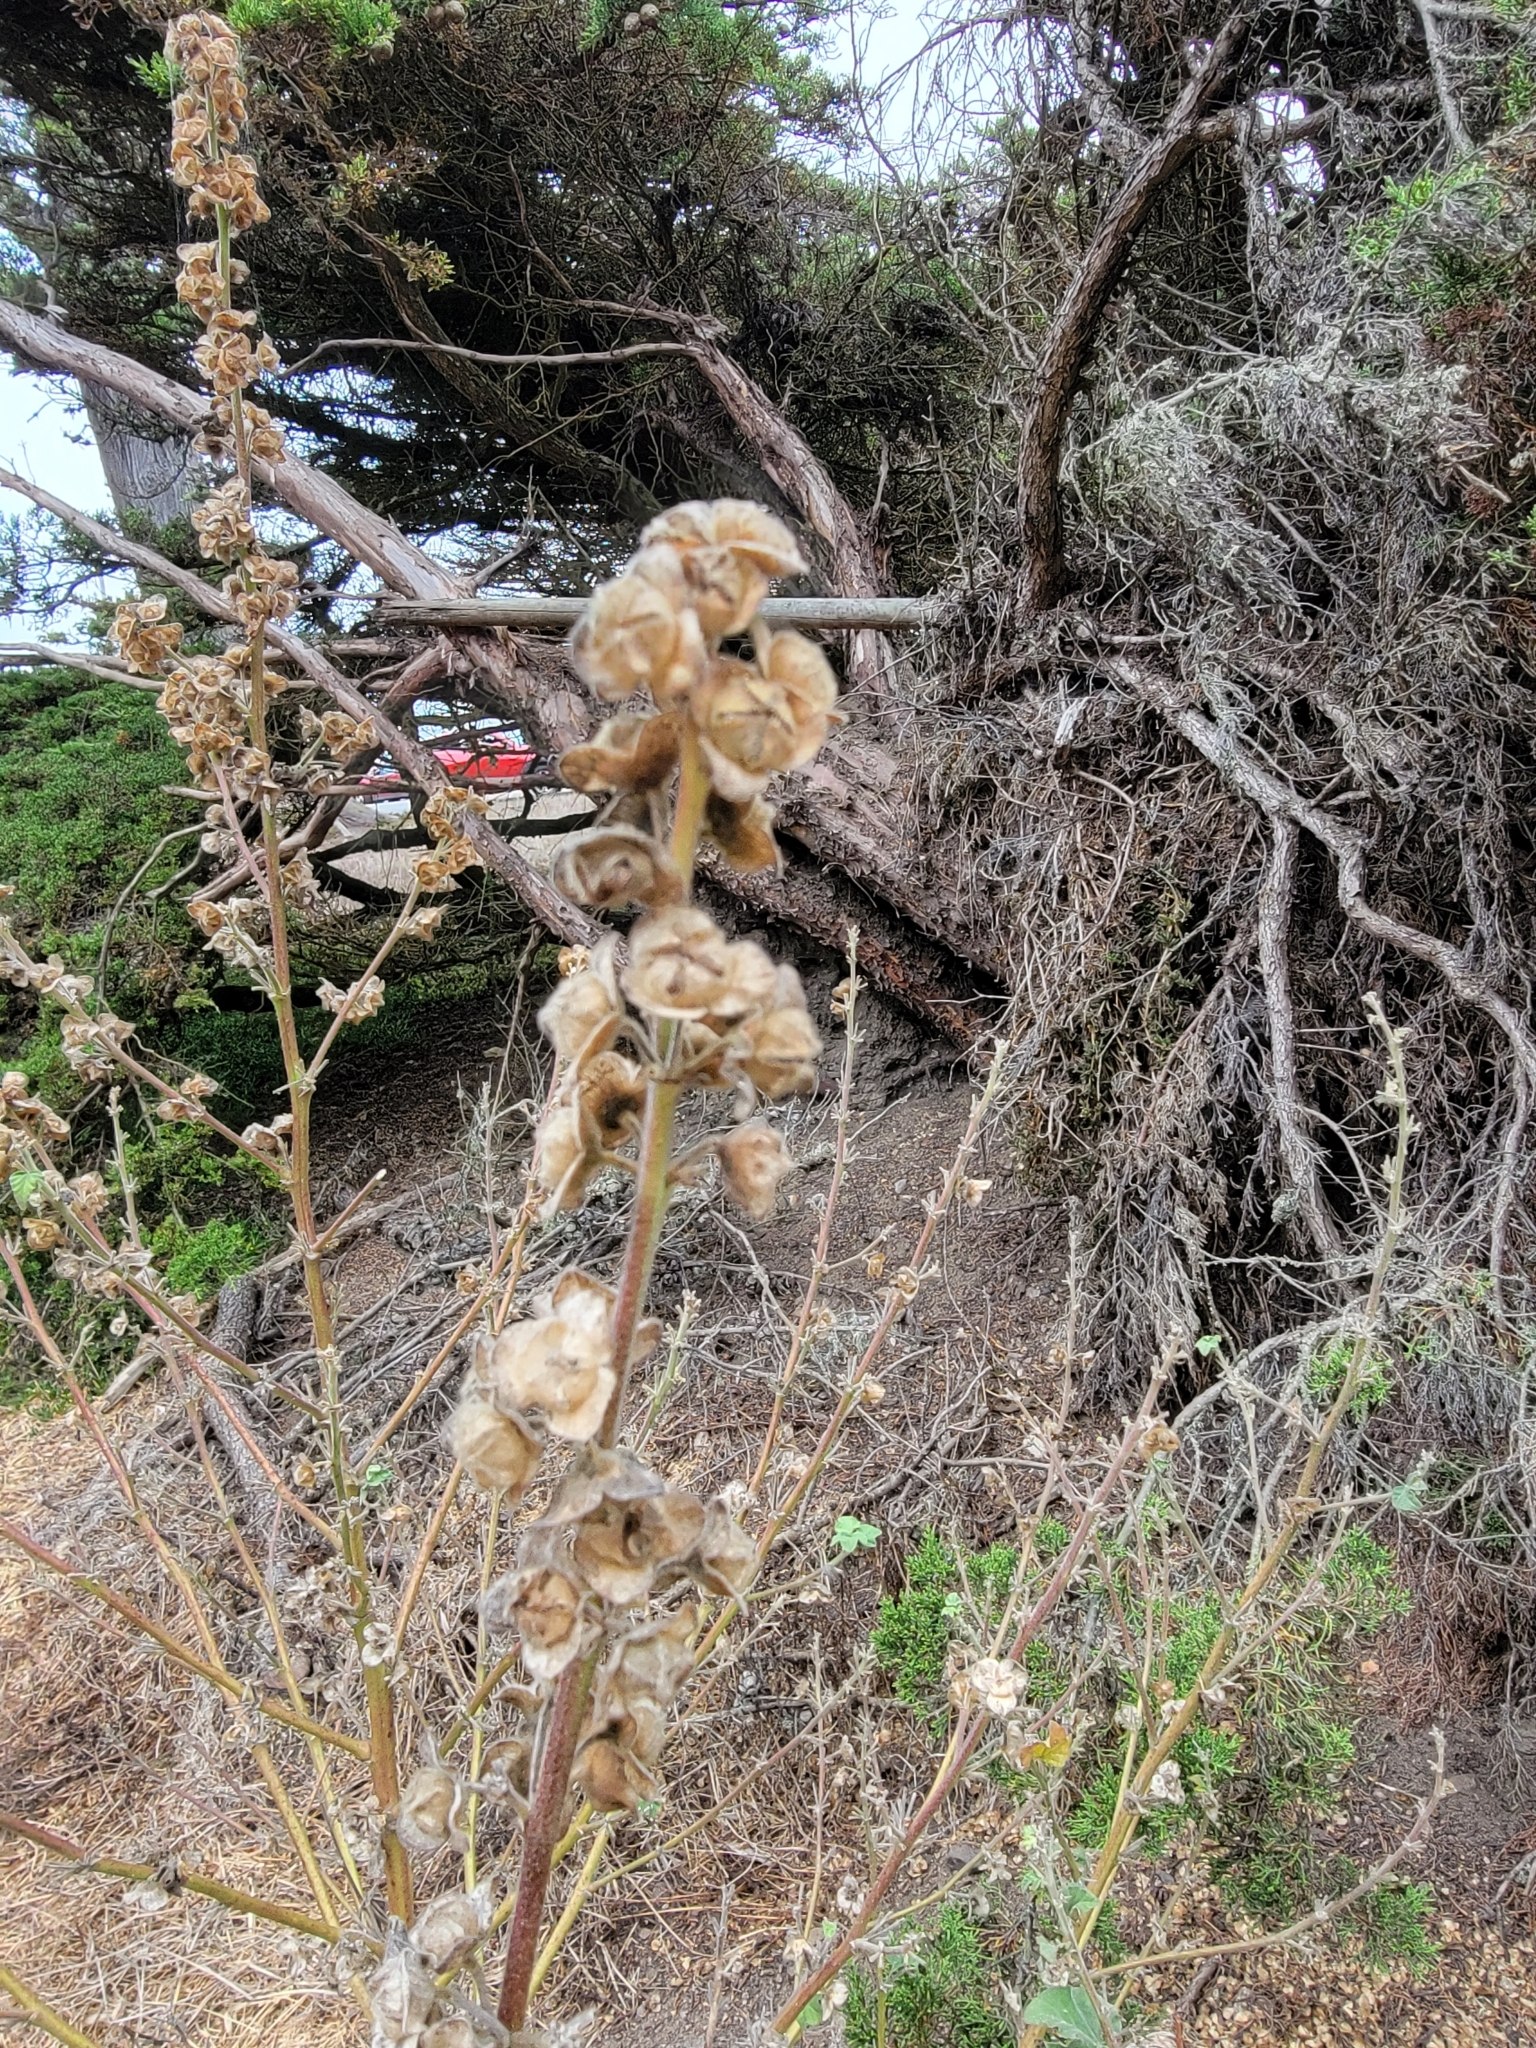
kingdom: Plantae
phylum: Tracheophyta
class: Magnoliopsida
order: Malvales
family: Malvaceae
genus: Malva
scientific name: Malva arborea
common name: Tree mallow
